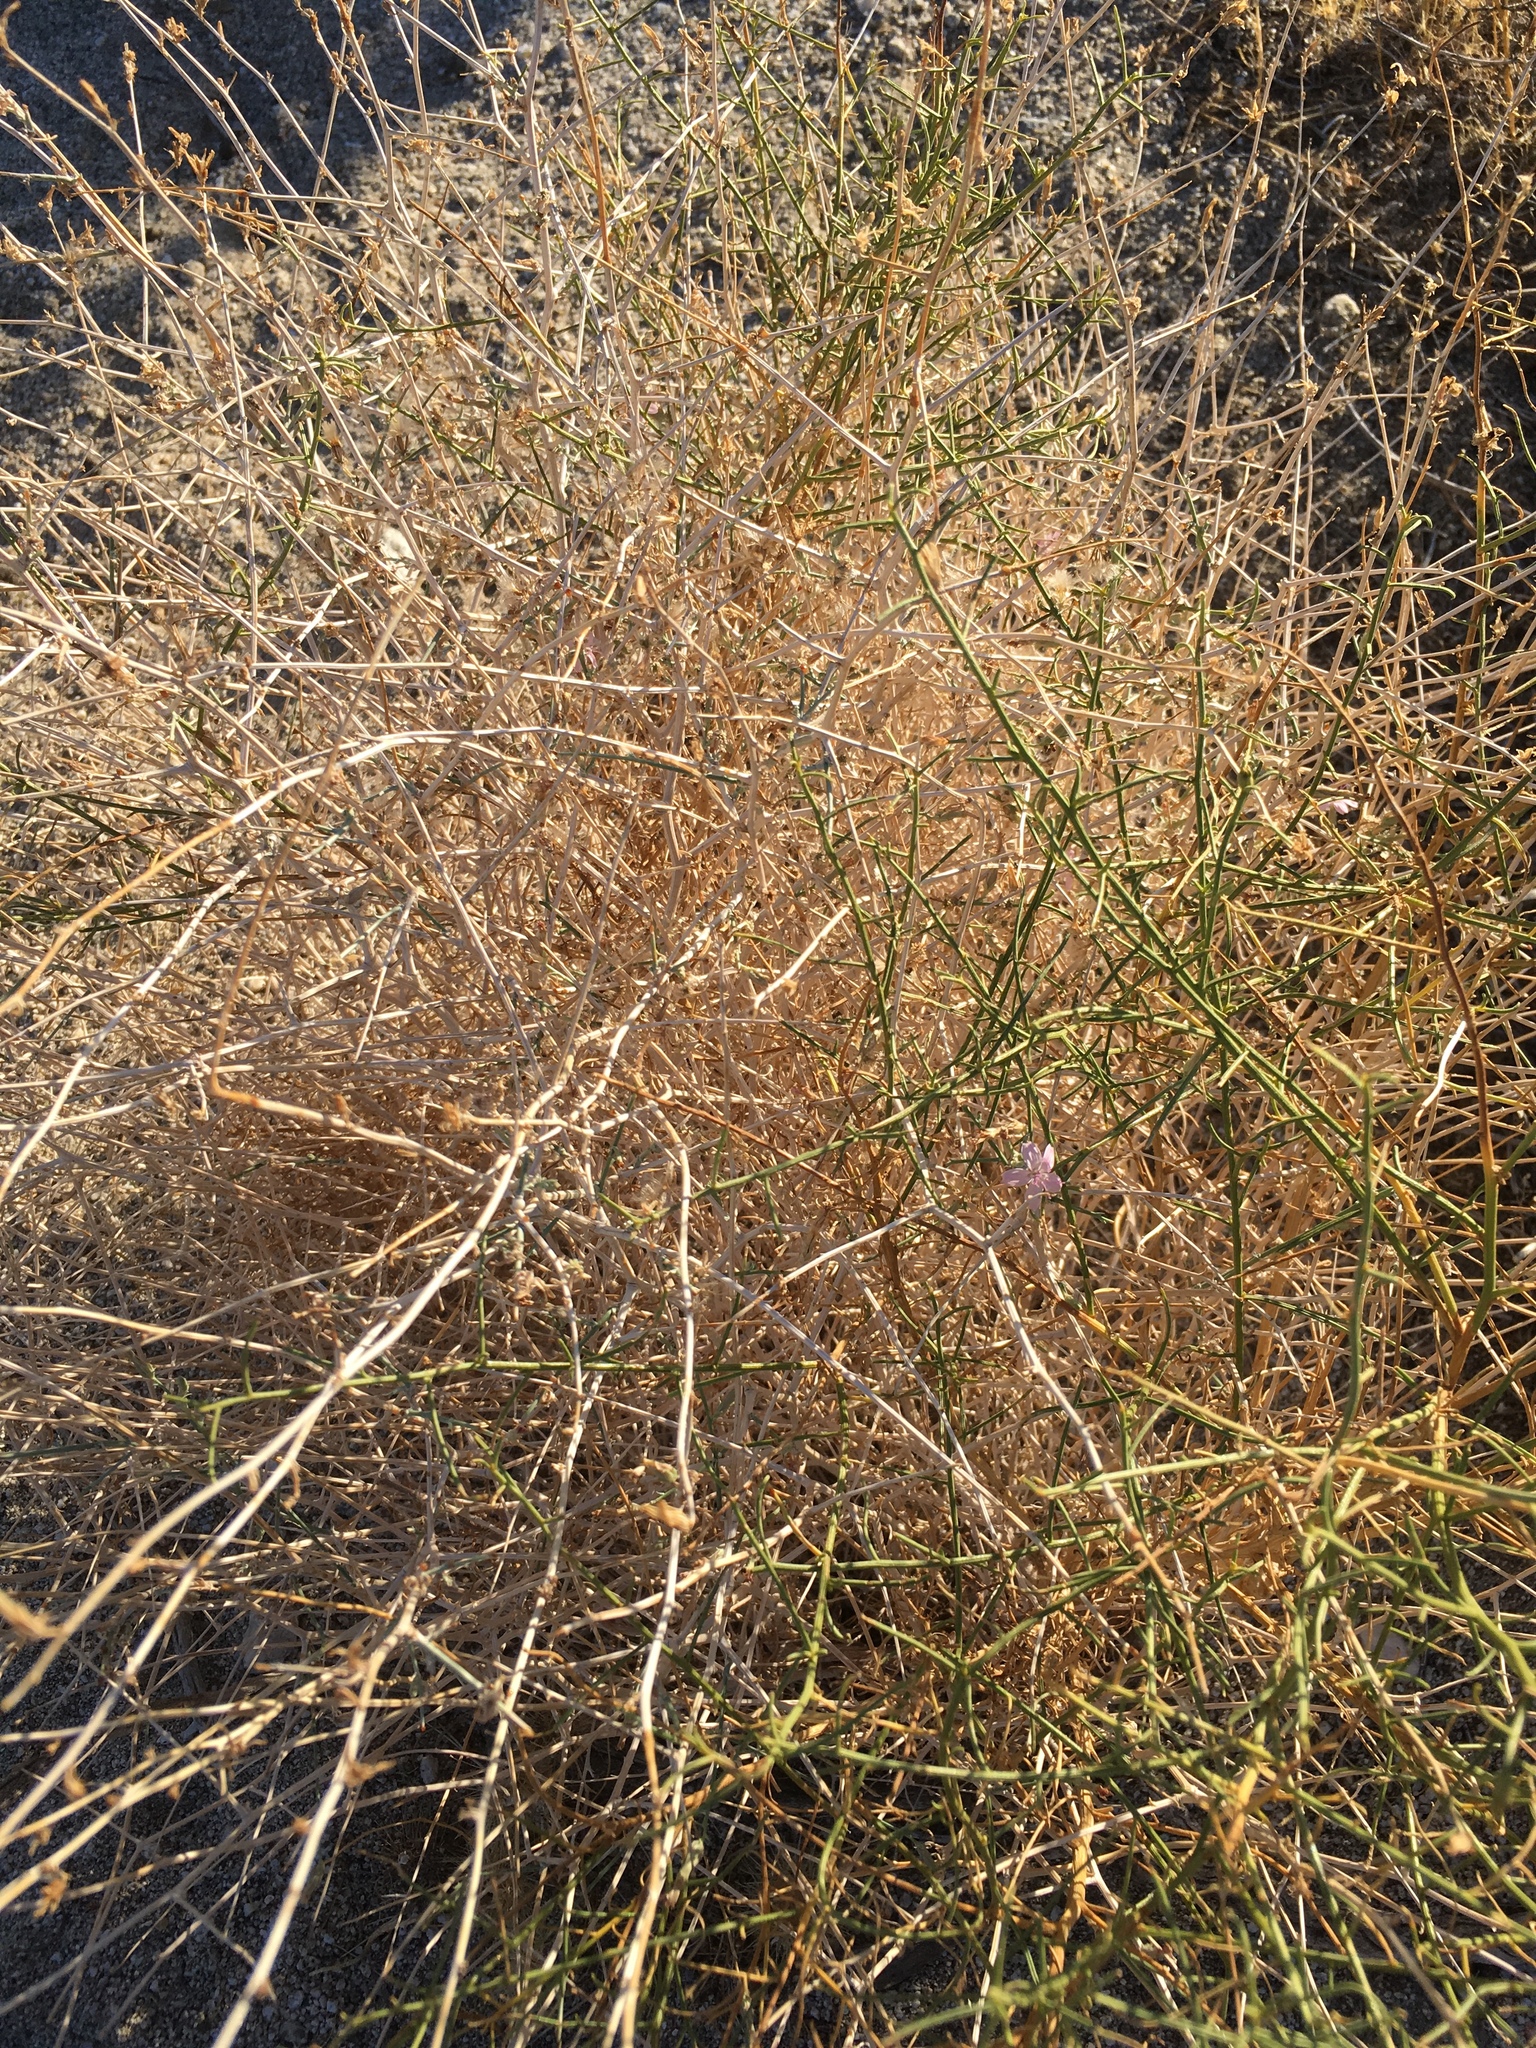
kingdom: Plantae
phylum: Tracheophyta
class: Magnoliopsida
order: Asterales
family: Asteraceae
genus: Stephanomeria
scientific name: Stephanomeria pauciflora
